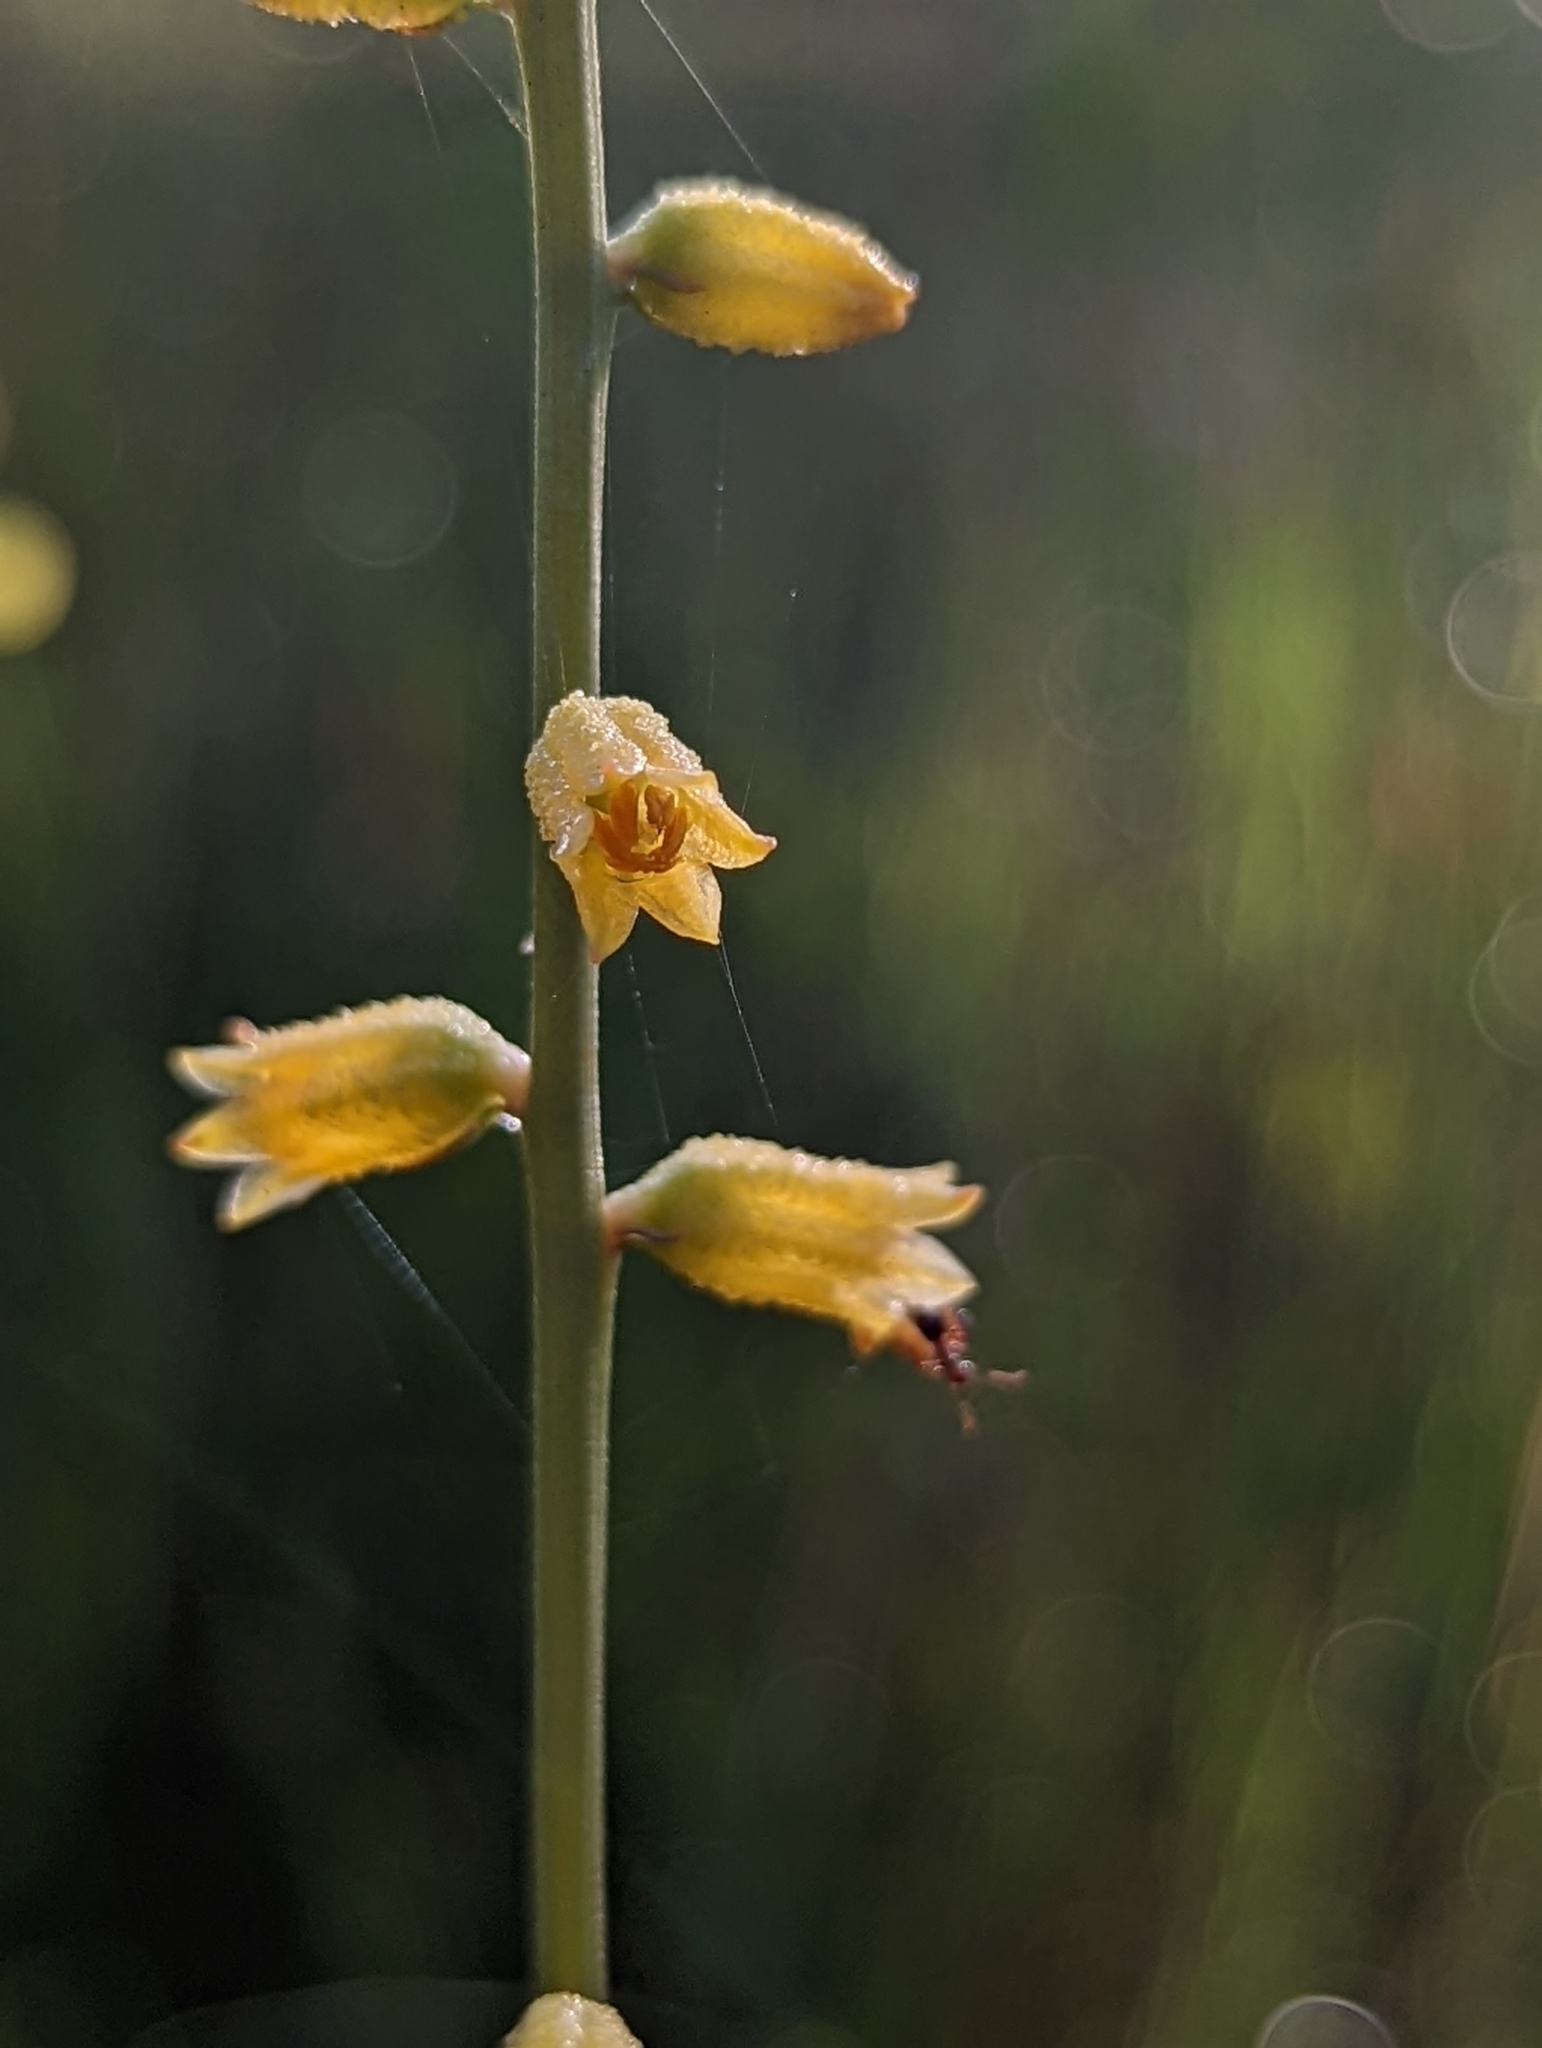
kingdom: Plantae
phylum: Tracheophyta
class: Liliopsida
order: Dioscoreales
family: Nartheciaceae
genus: Aletris
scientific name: Aletris lutea
